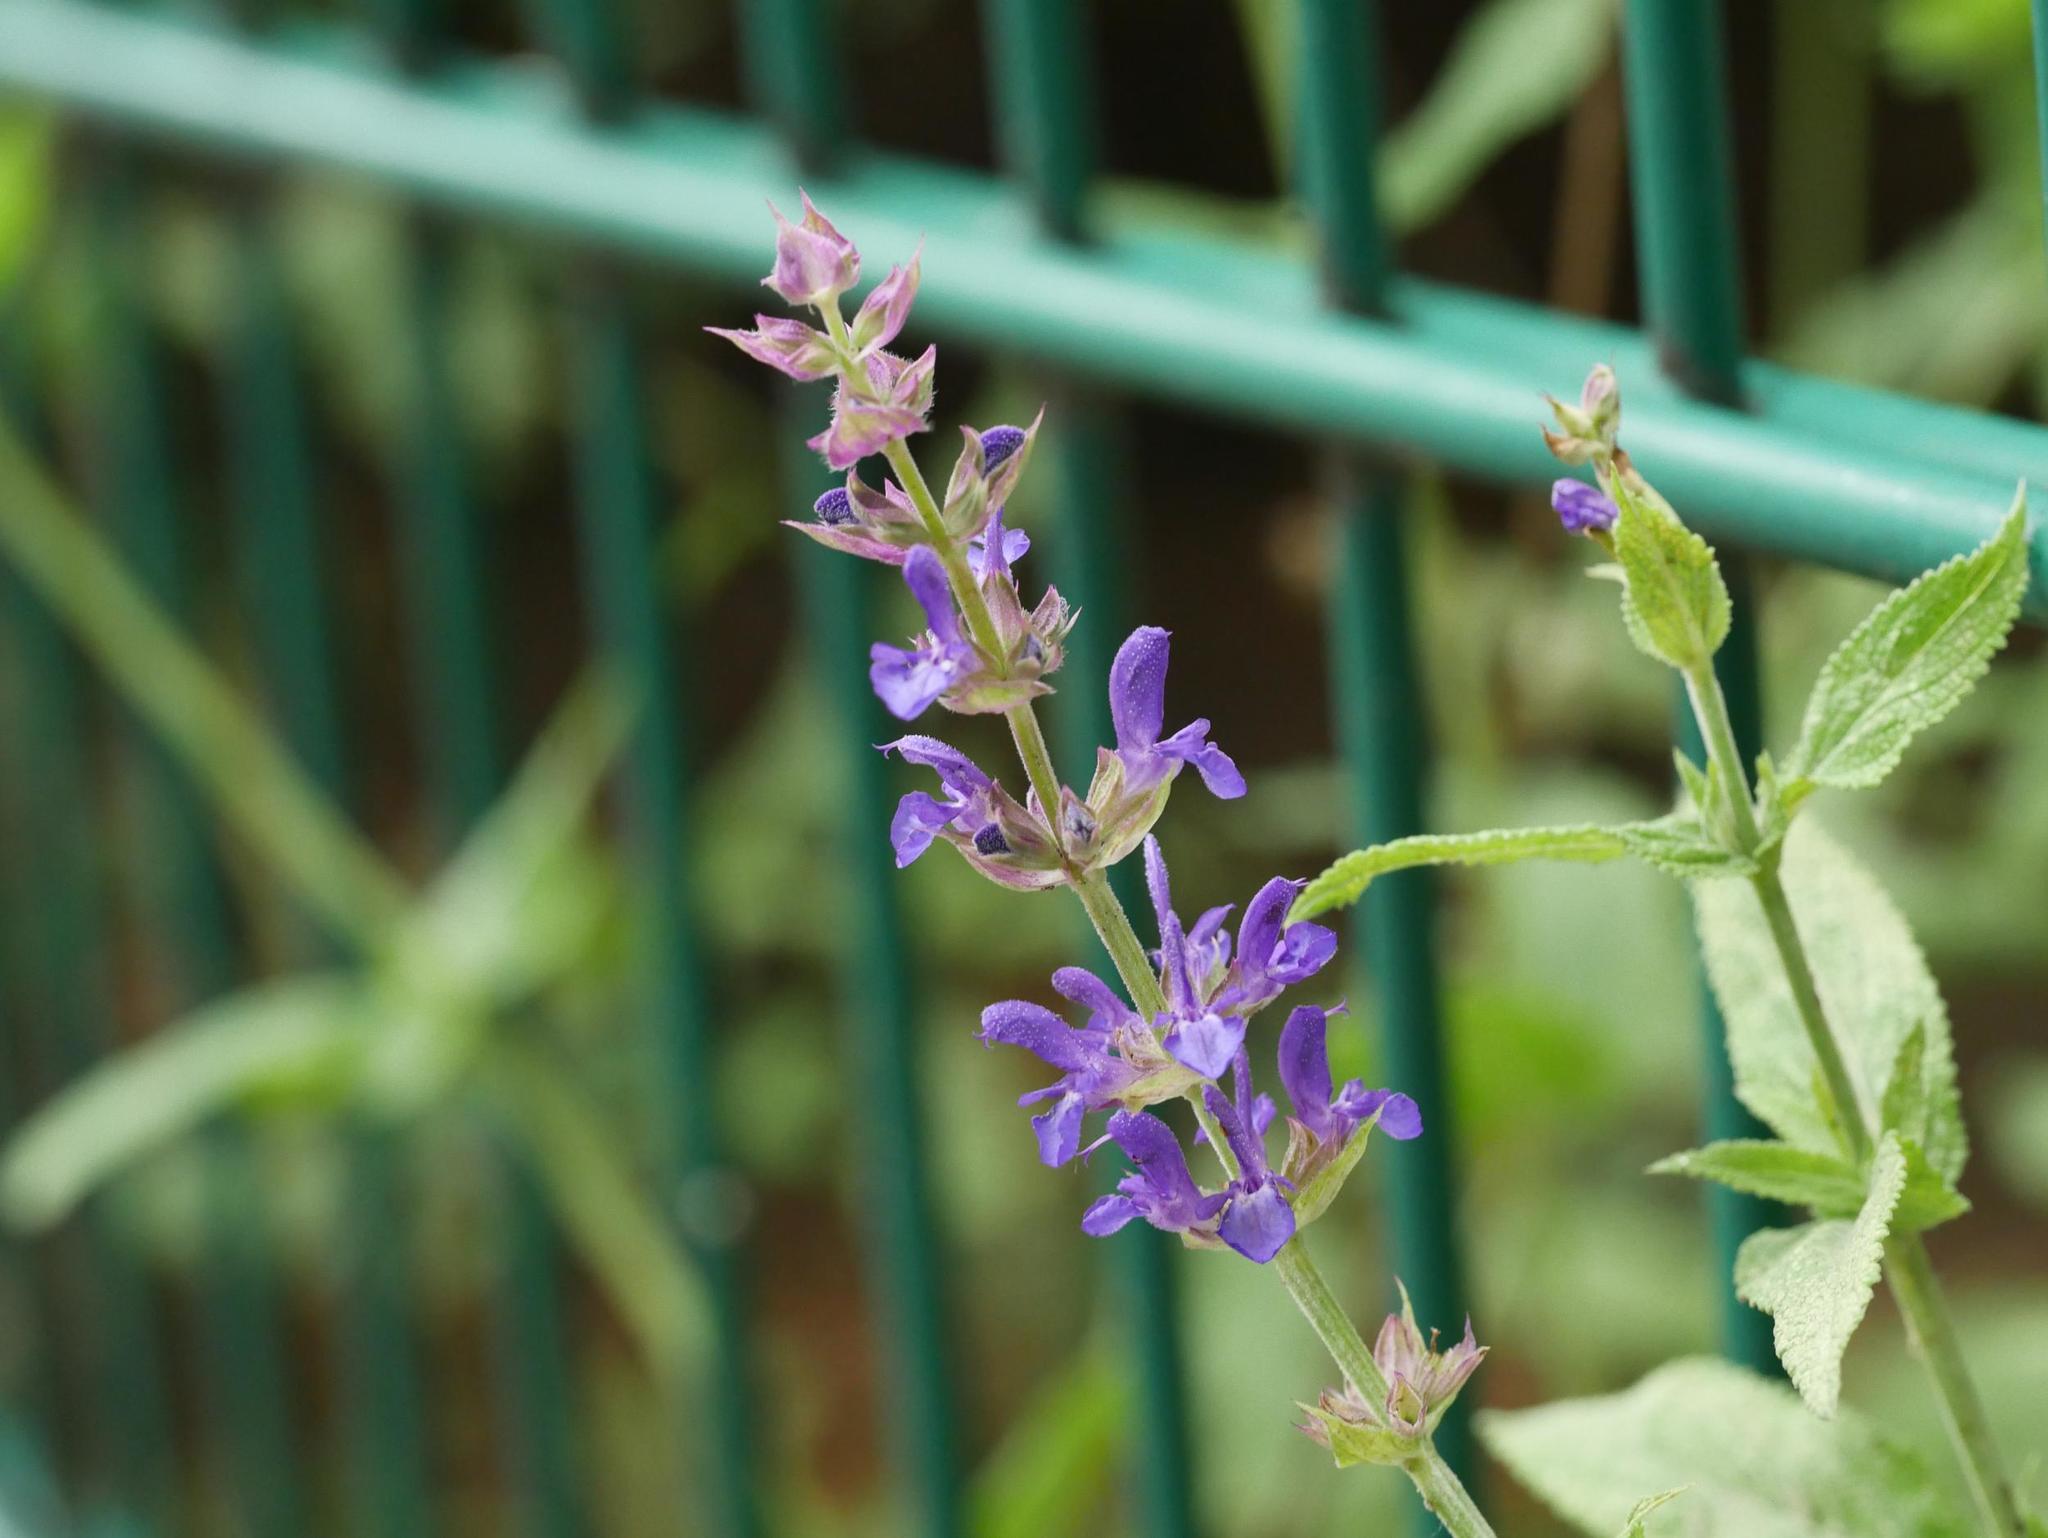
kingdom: Plantae
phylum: Tracheophyta
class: Magnoliopsida
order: Lamiales
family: Lamiaceae
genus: Salvia
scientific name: Salvia nemorosa
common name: Balkan clary
